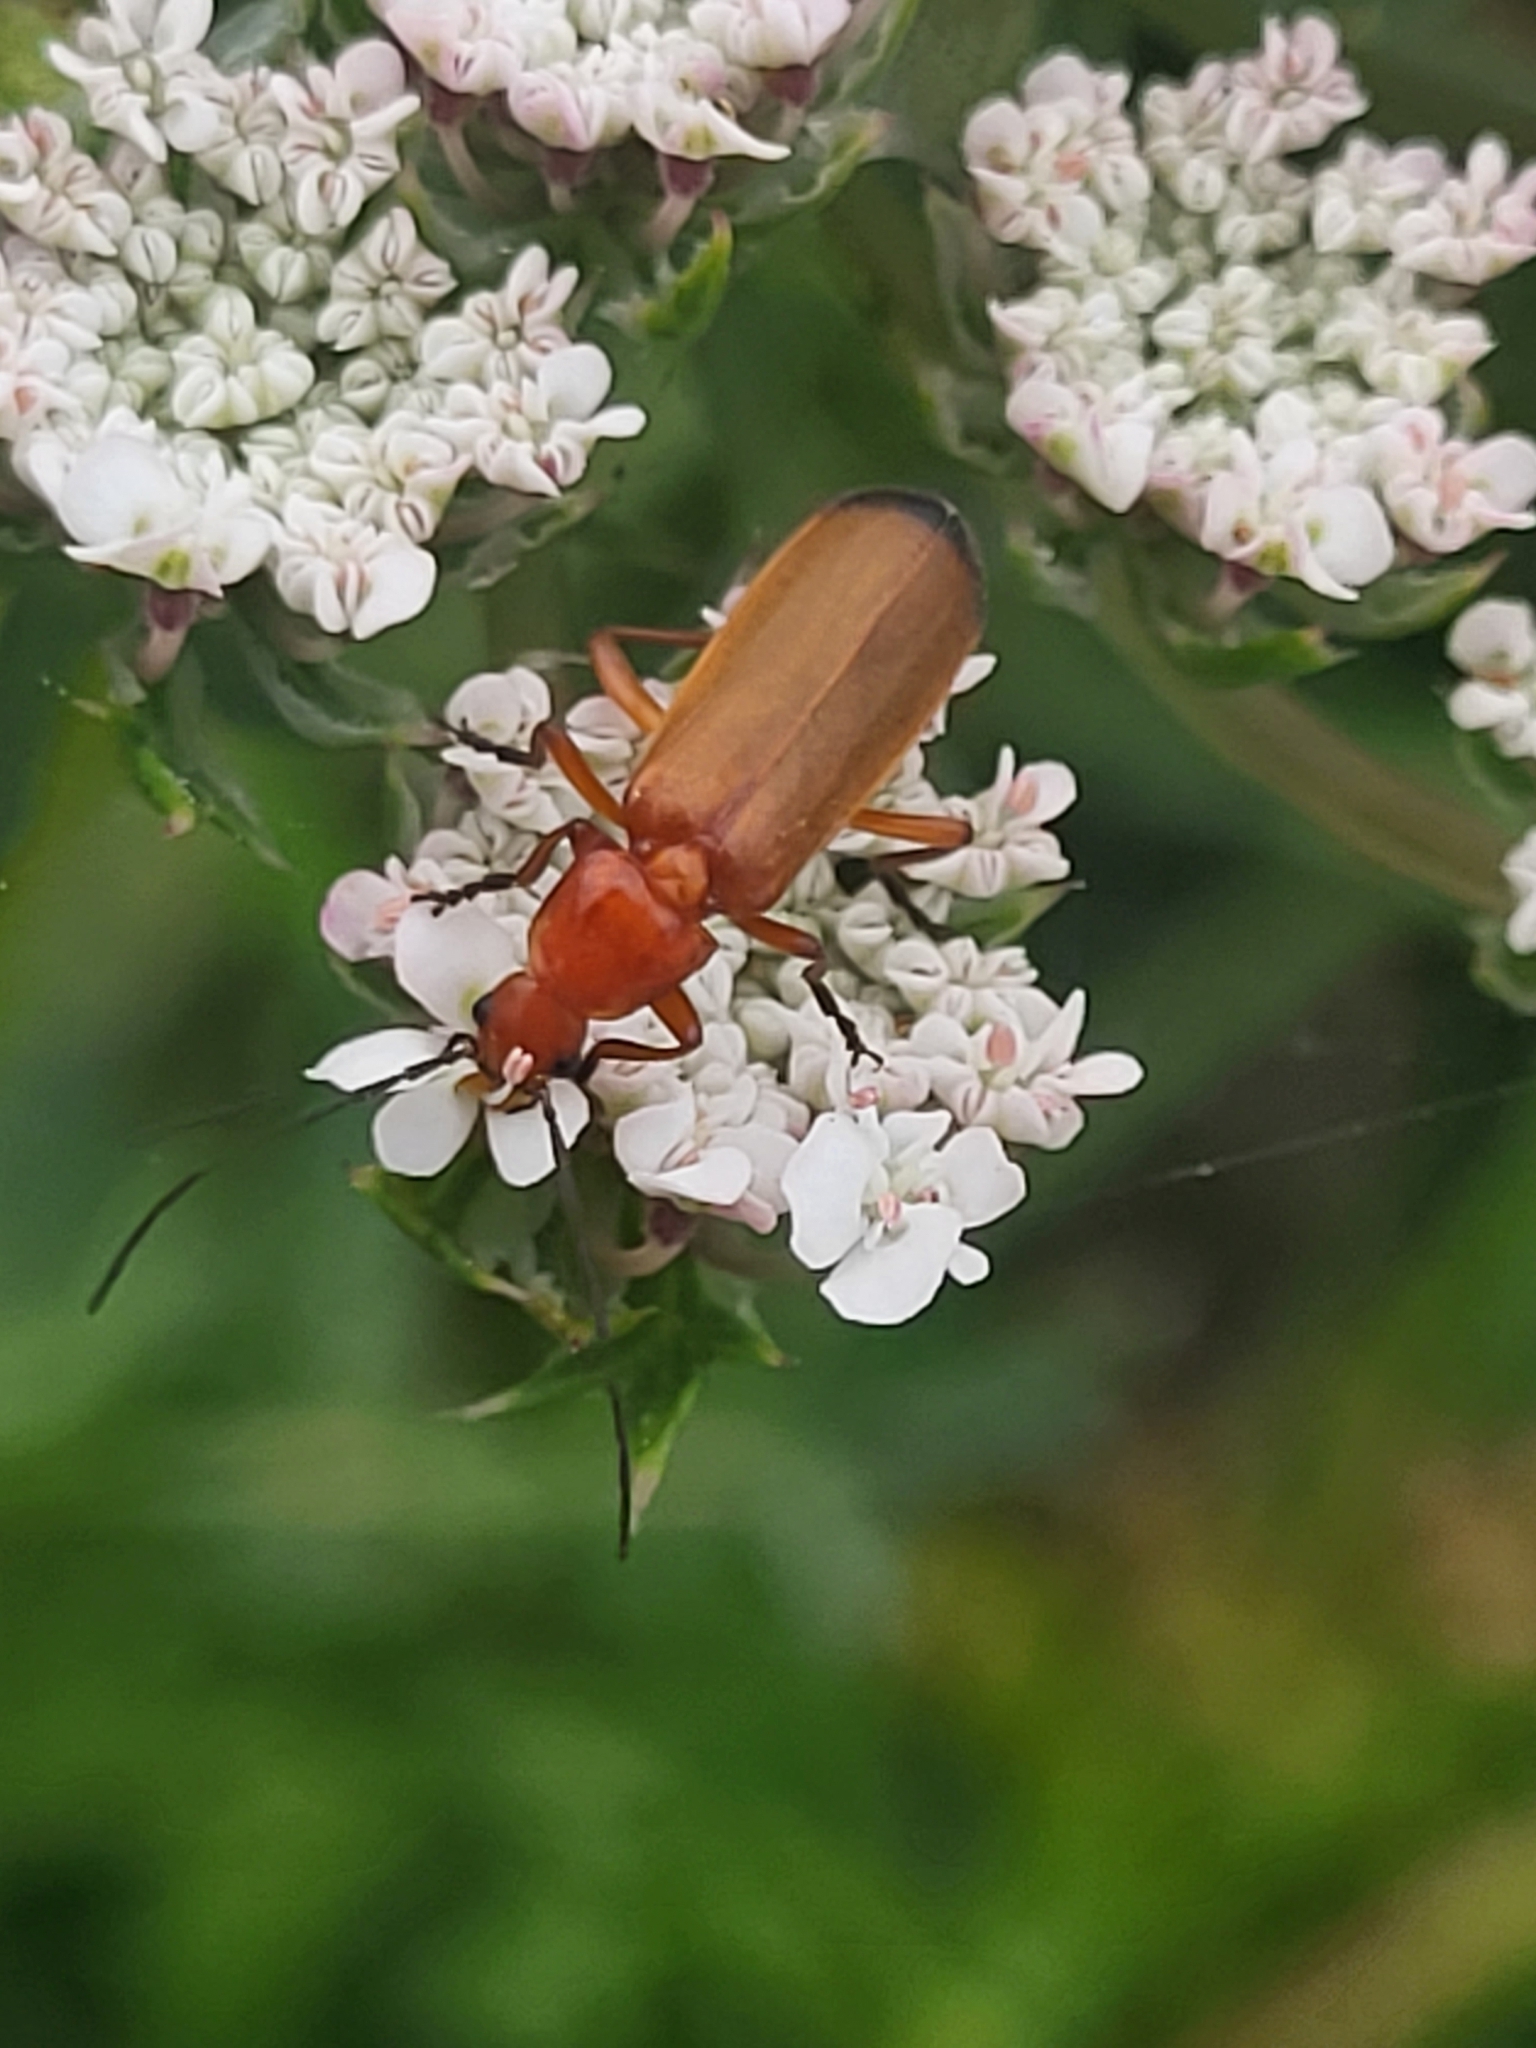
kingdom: Animalia
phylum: Arthropoda
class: Insecta
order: Coleoptera
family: Cantharidae
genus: Rhagonycha
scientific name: Rhagonycha fulva
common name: Common red soldier beetle
